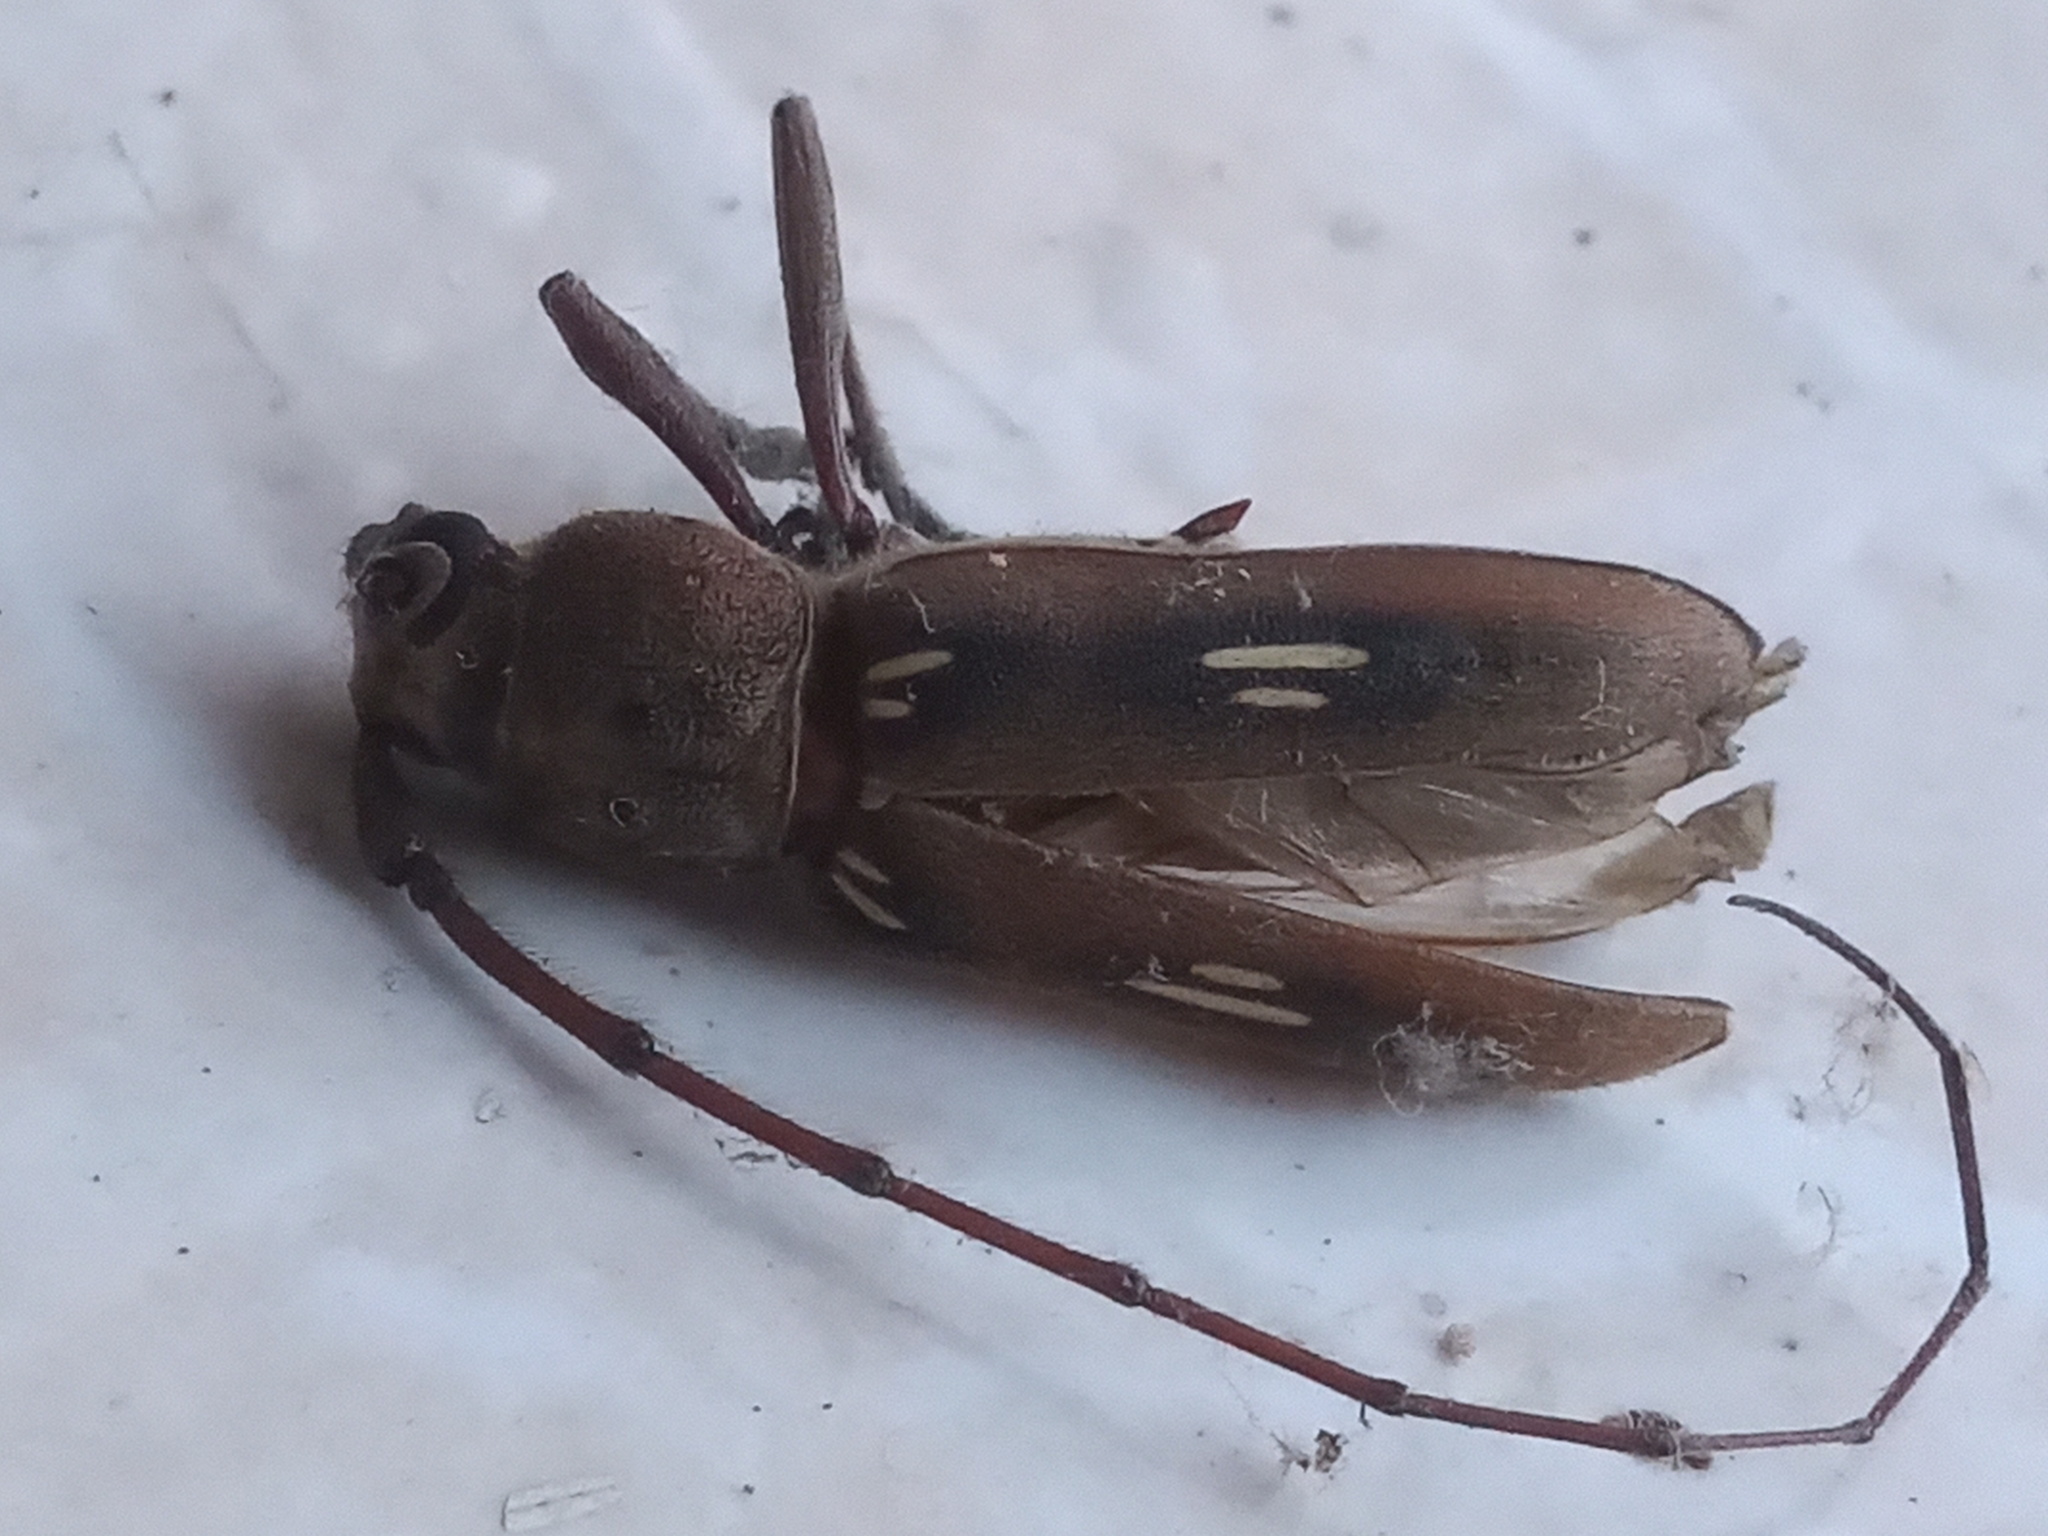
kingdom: Animalia
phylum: Arthropoda
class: Insecta
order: Coleoptera
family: Cerambycidae
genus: Eburia
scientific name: Eburia ovicollis
